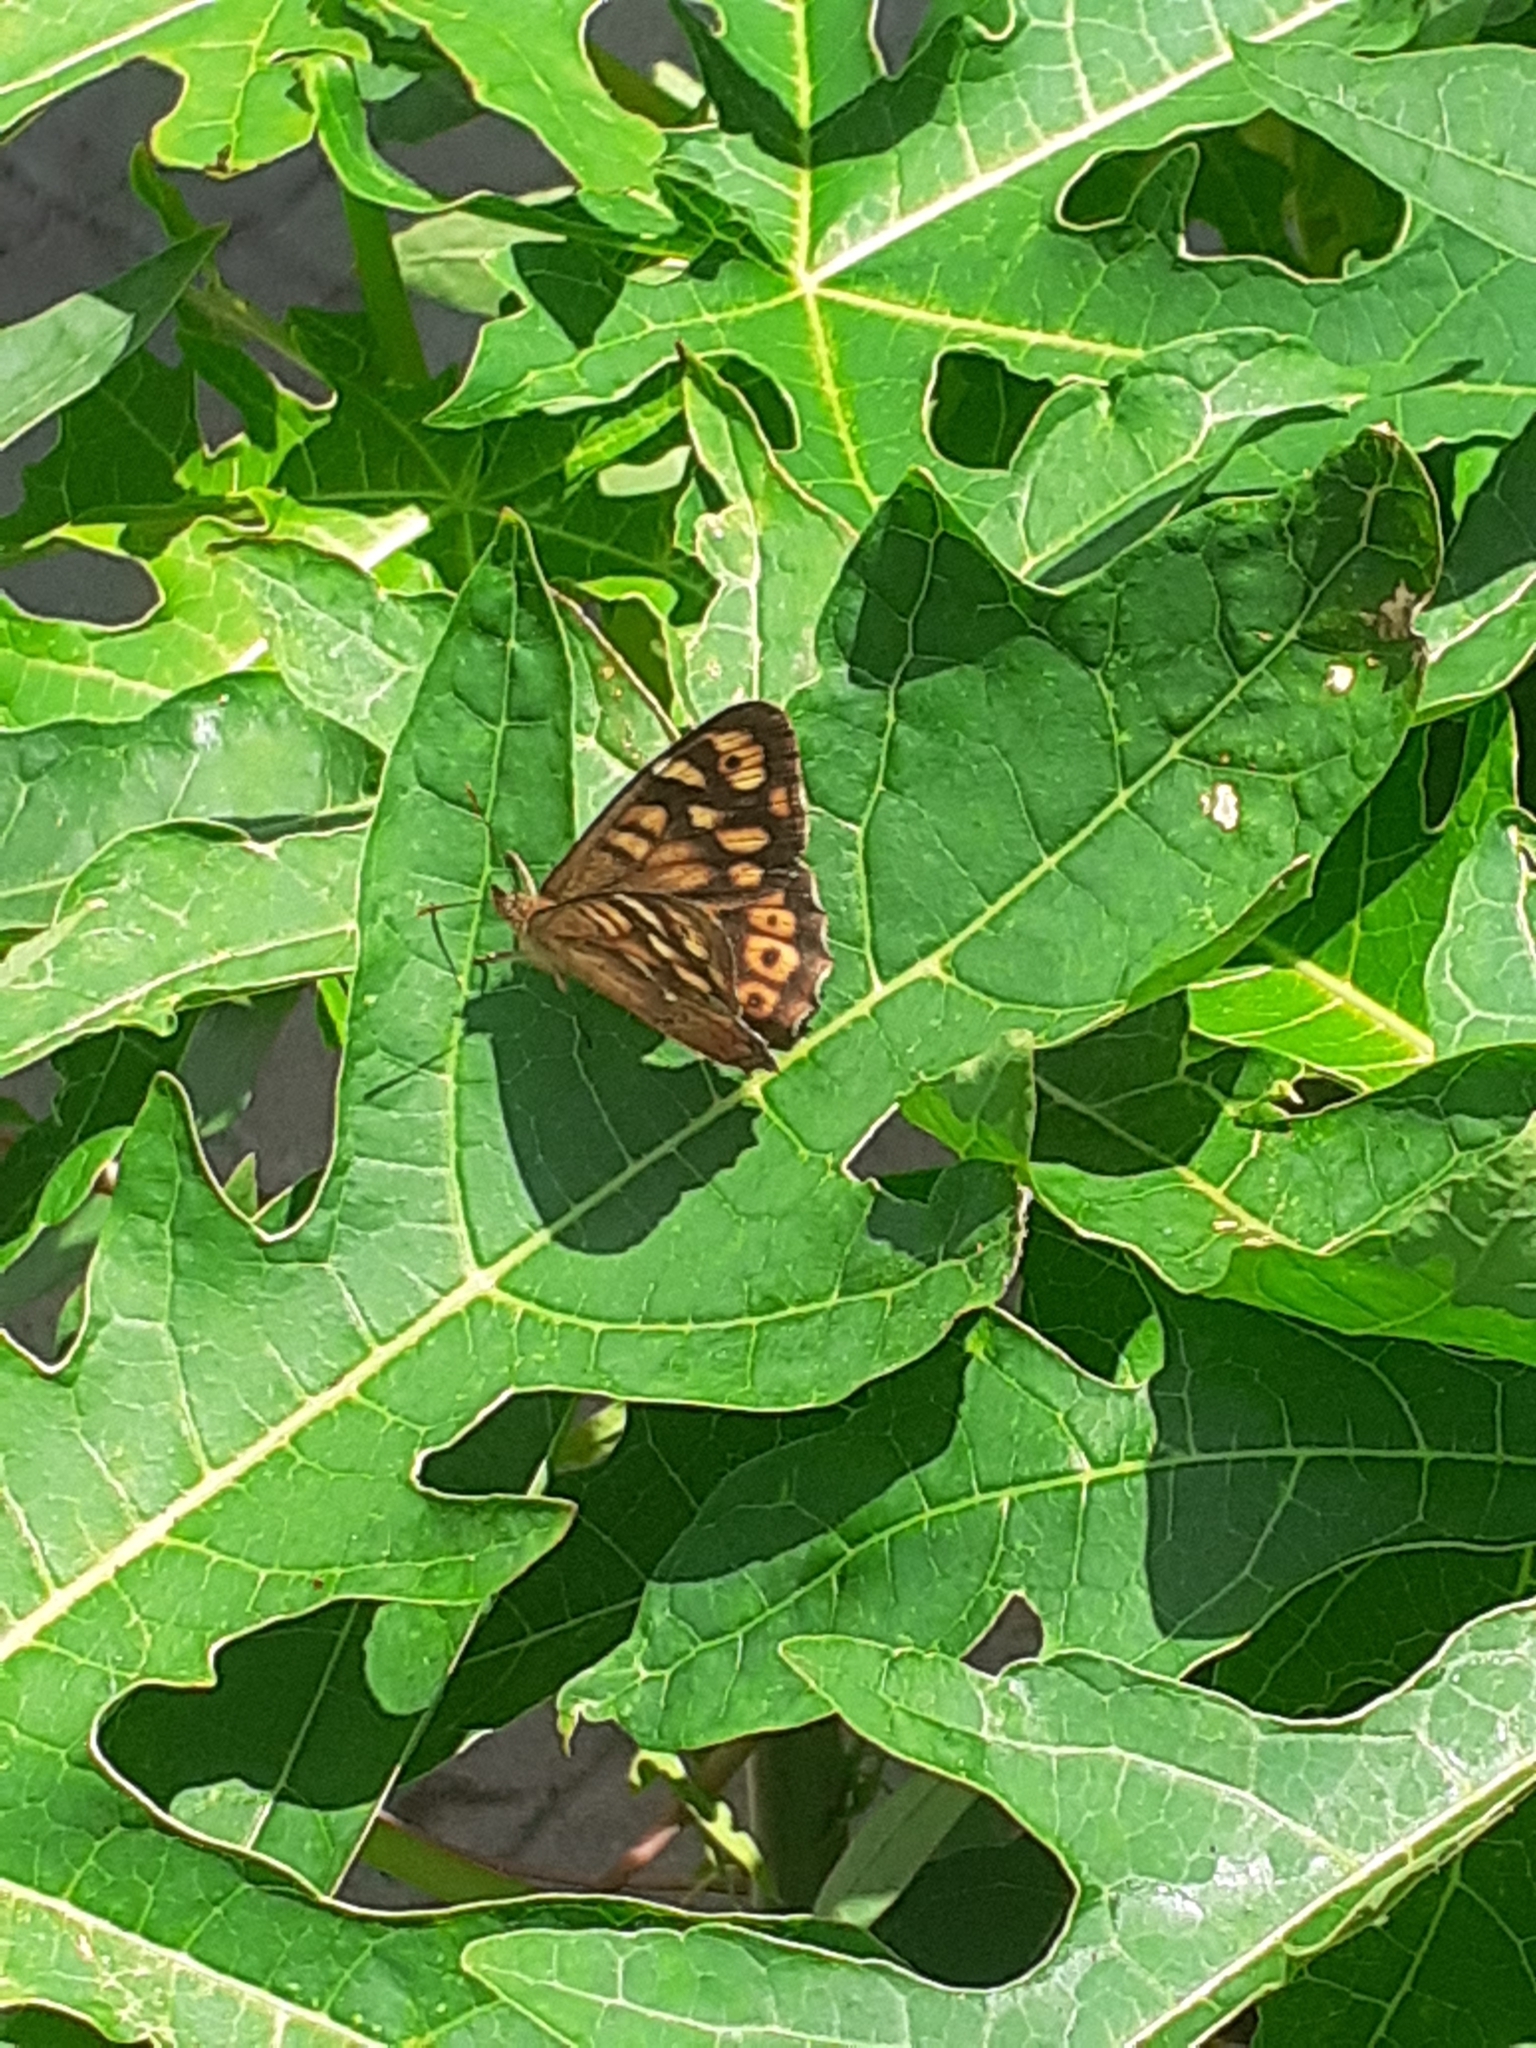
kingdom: Animalia
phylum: Arthropoda
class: Insecta
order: Lepidoptera
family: Nymphalidae
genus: Pararge
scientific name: Pararge aegeria
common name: Speckled wood
